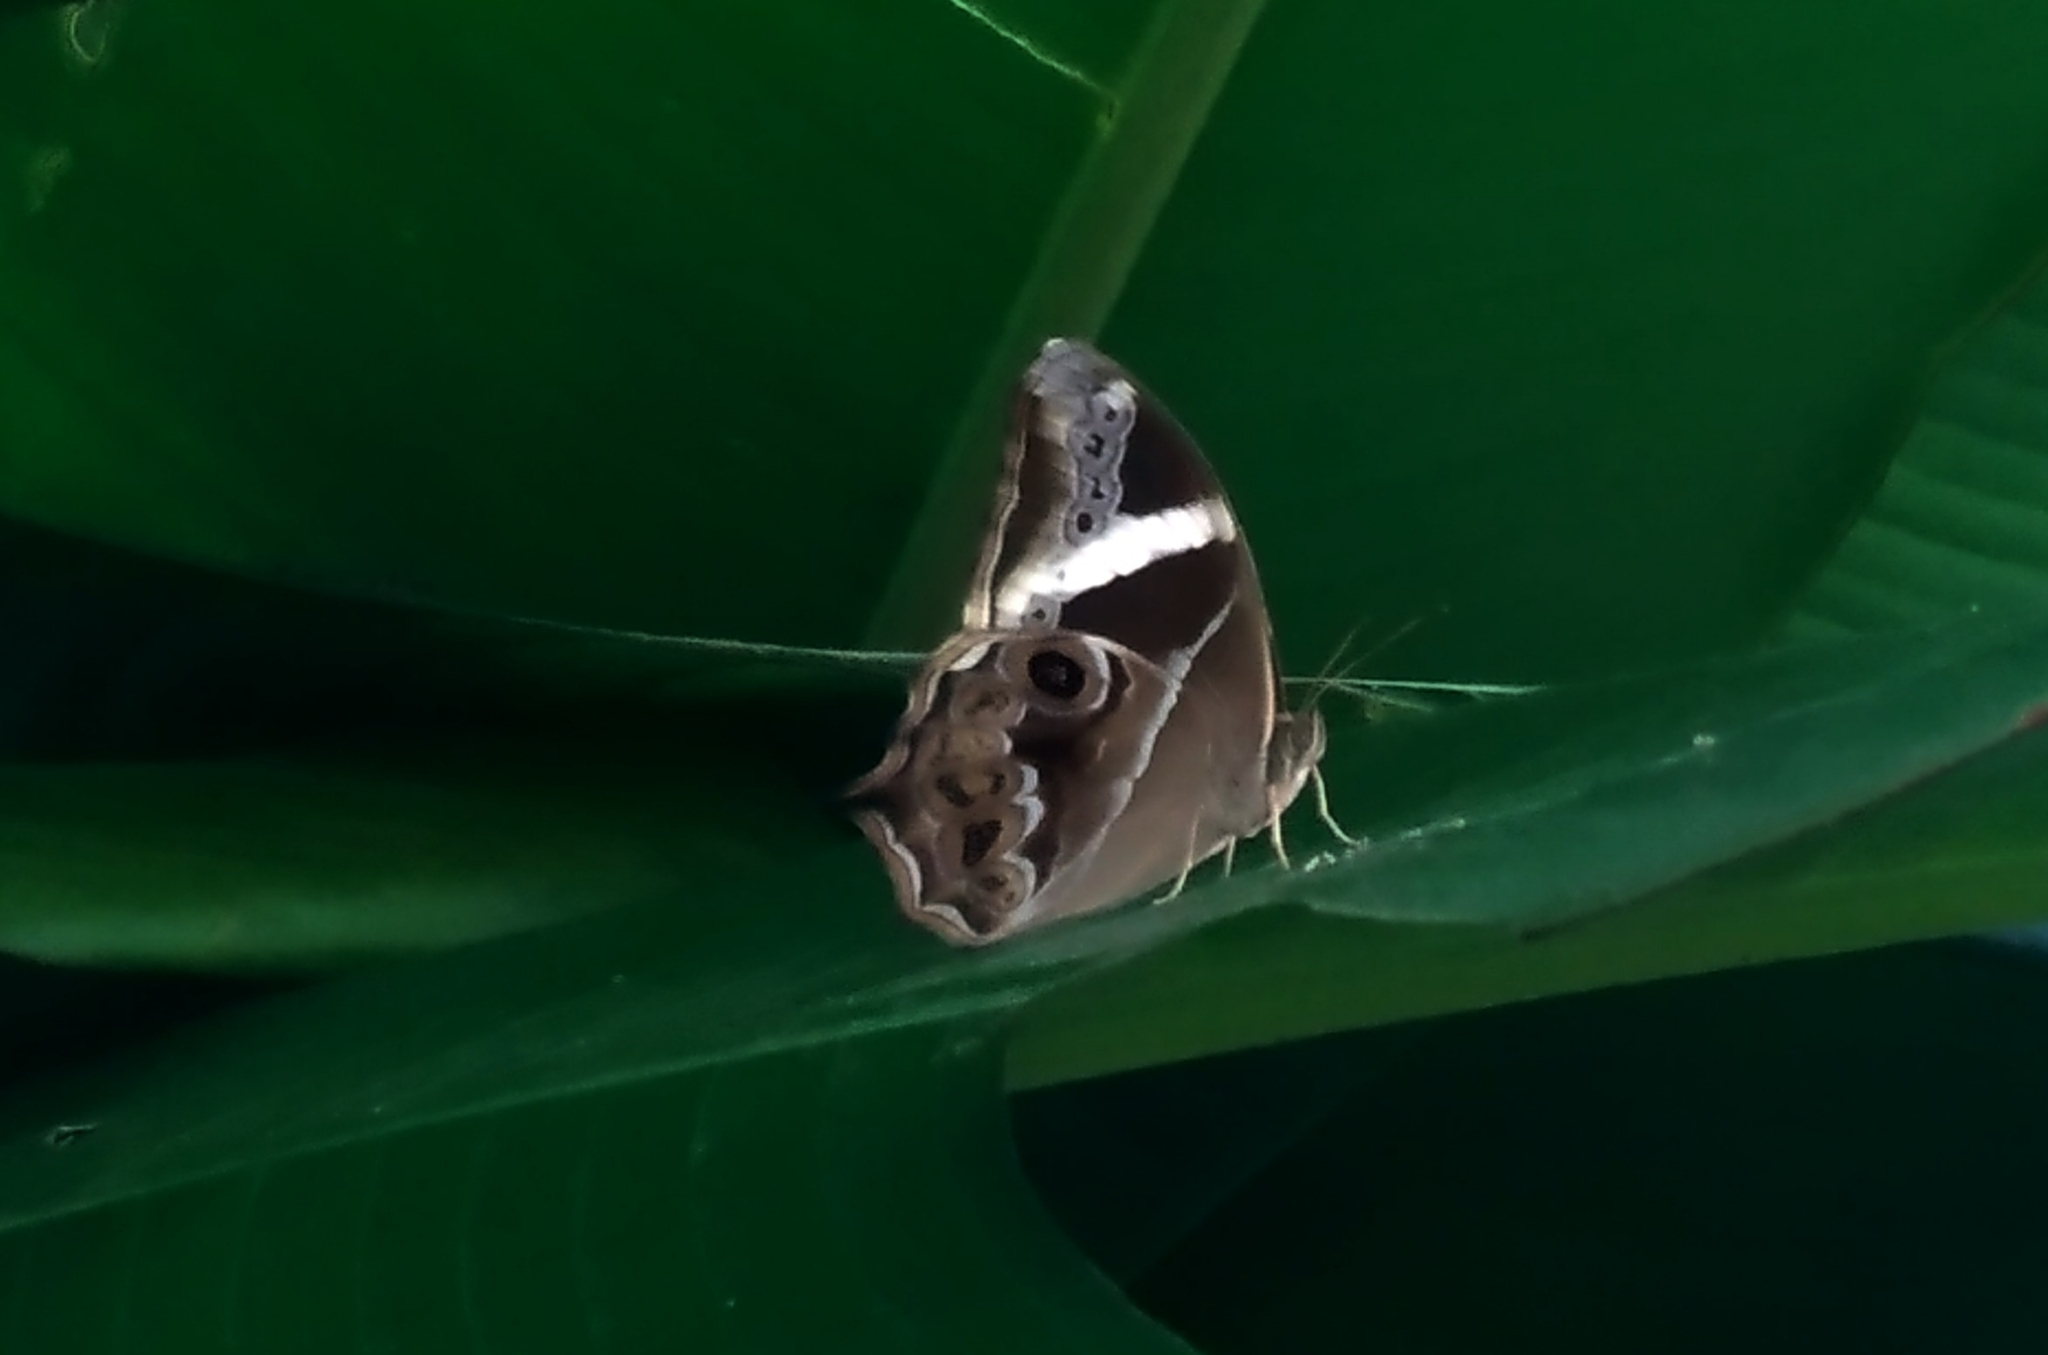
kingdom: Animalia
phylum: Arthropoda
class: Insecta
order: Lepidoptera
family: Nymphalidae
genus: Lethe
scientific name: Lethe europa
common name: Bamboo treebrown
